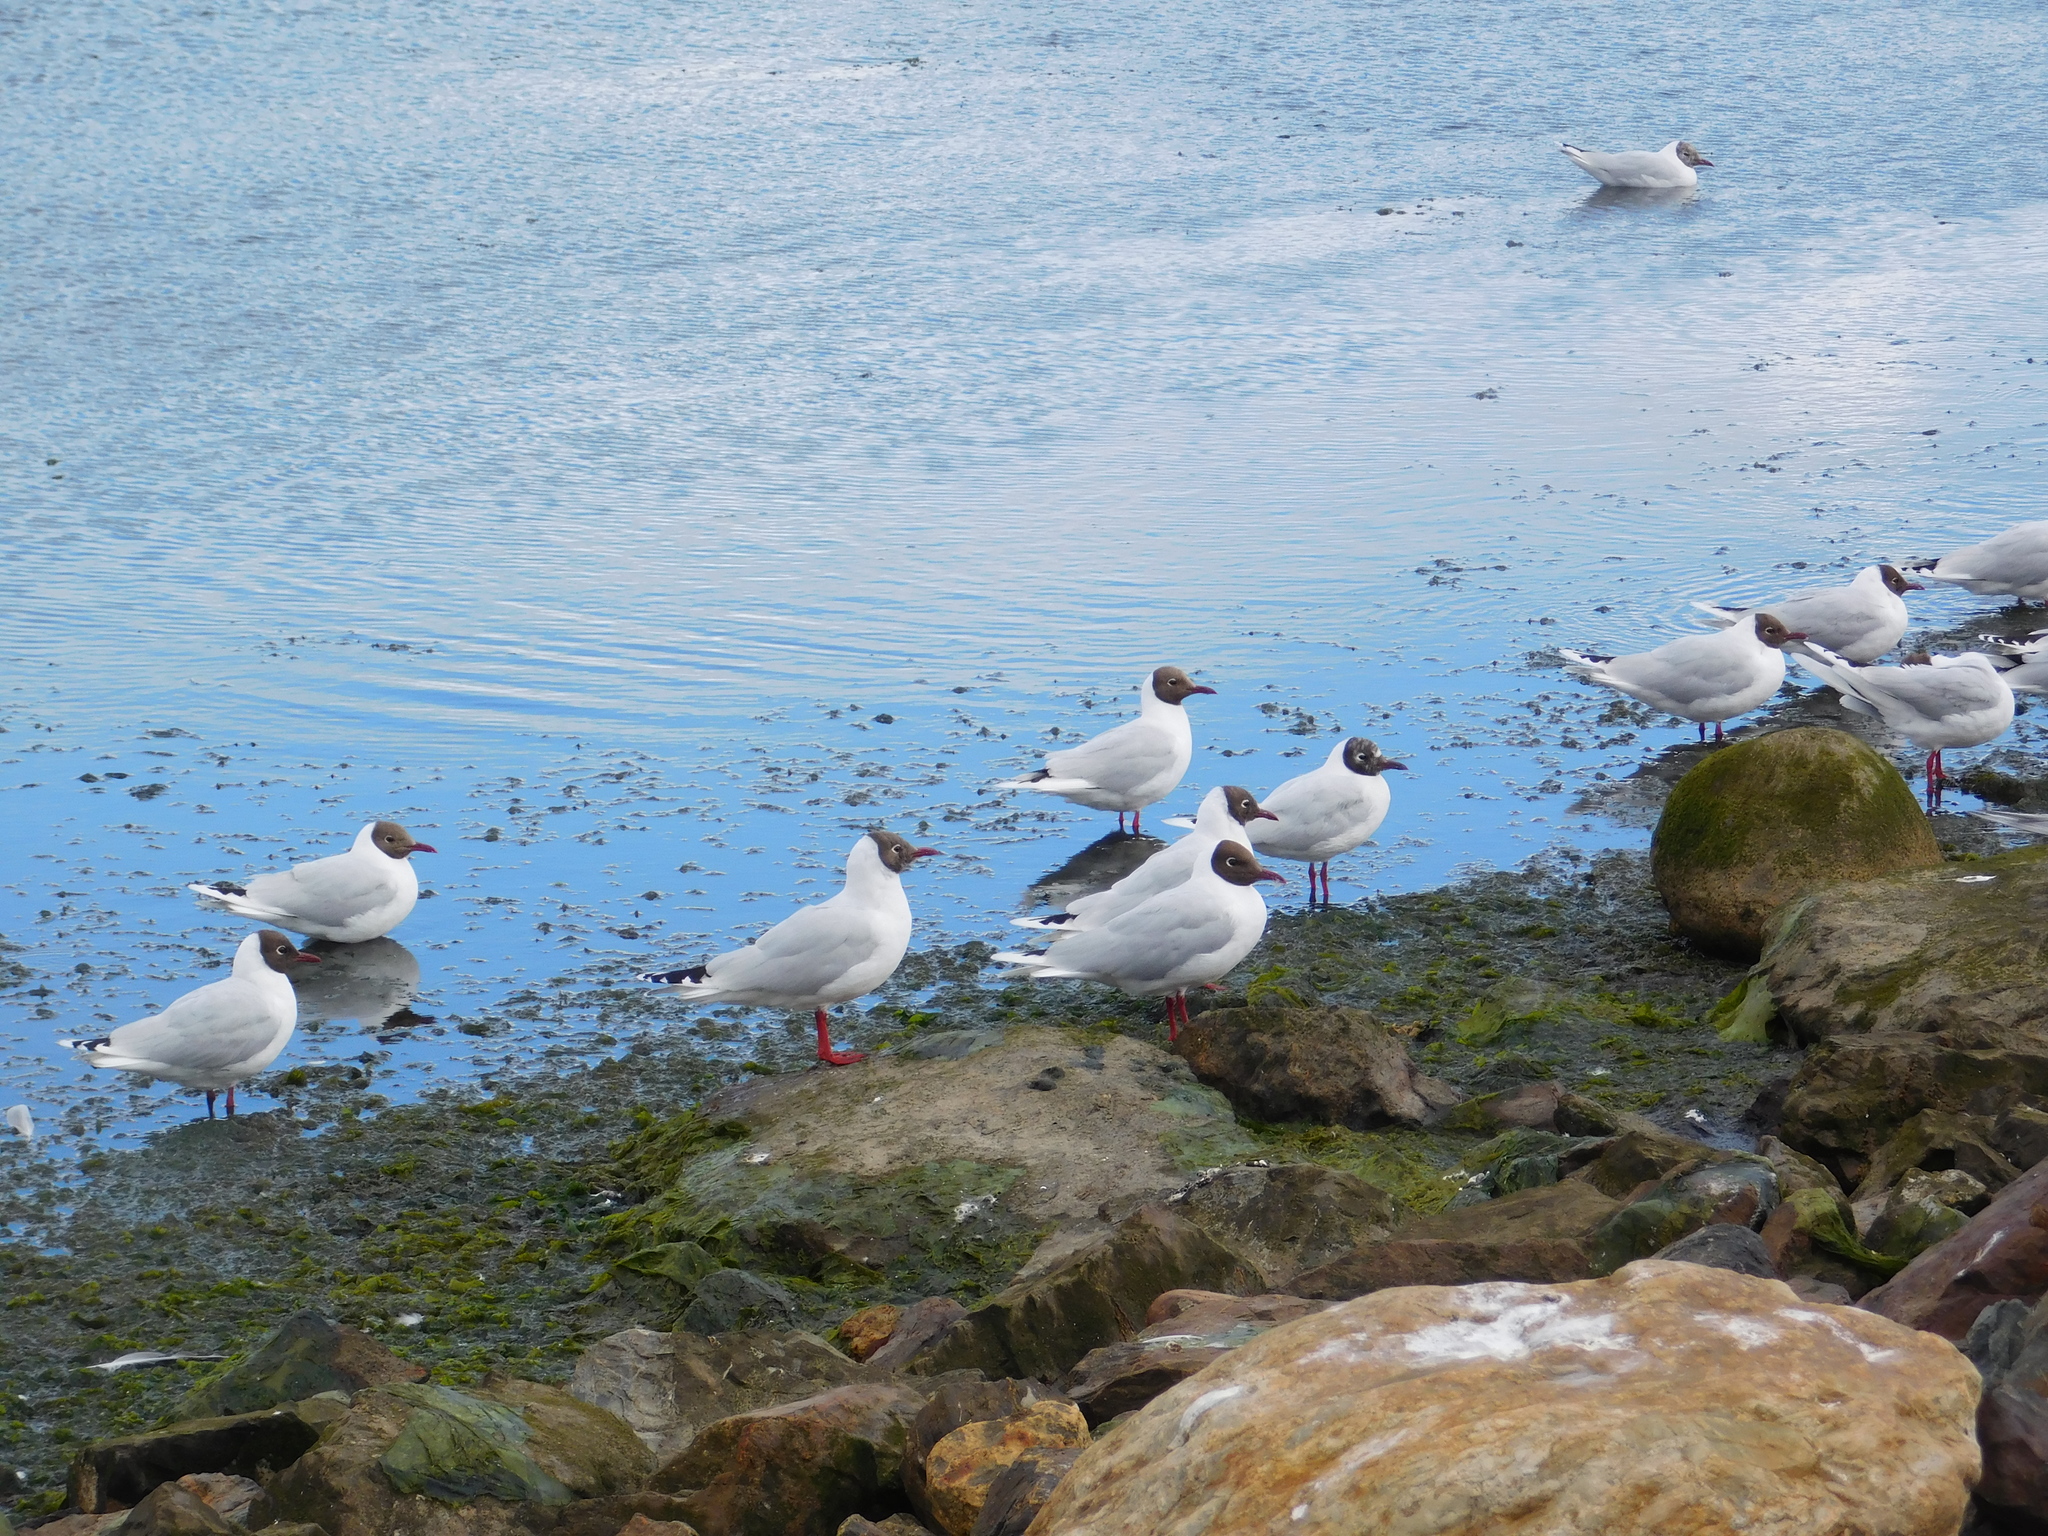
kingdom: Animalia
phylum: Chordata
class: Aves
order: Charadriiformes
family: Laridae
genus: Chroicocephalus
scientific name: Chroicocephalus maculipennis
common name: Brown-hooded gull
